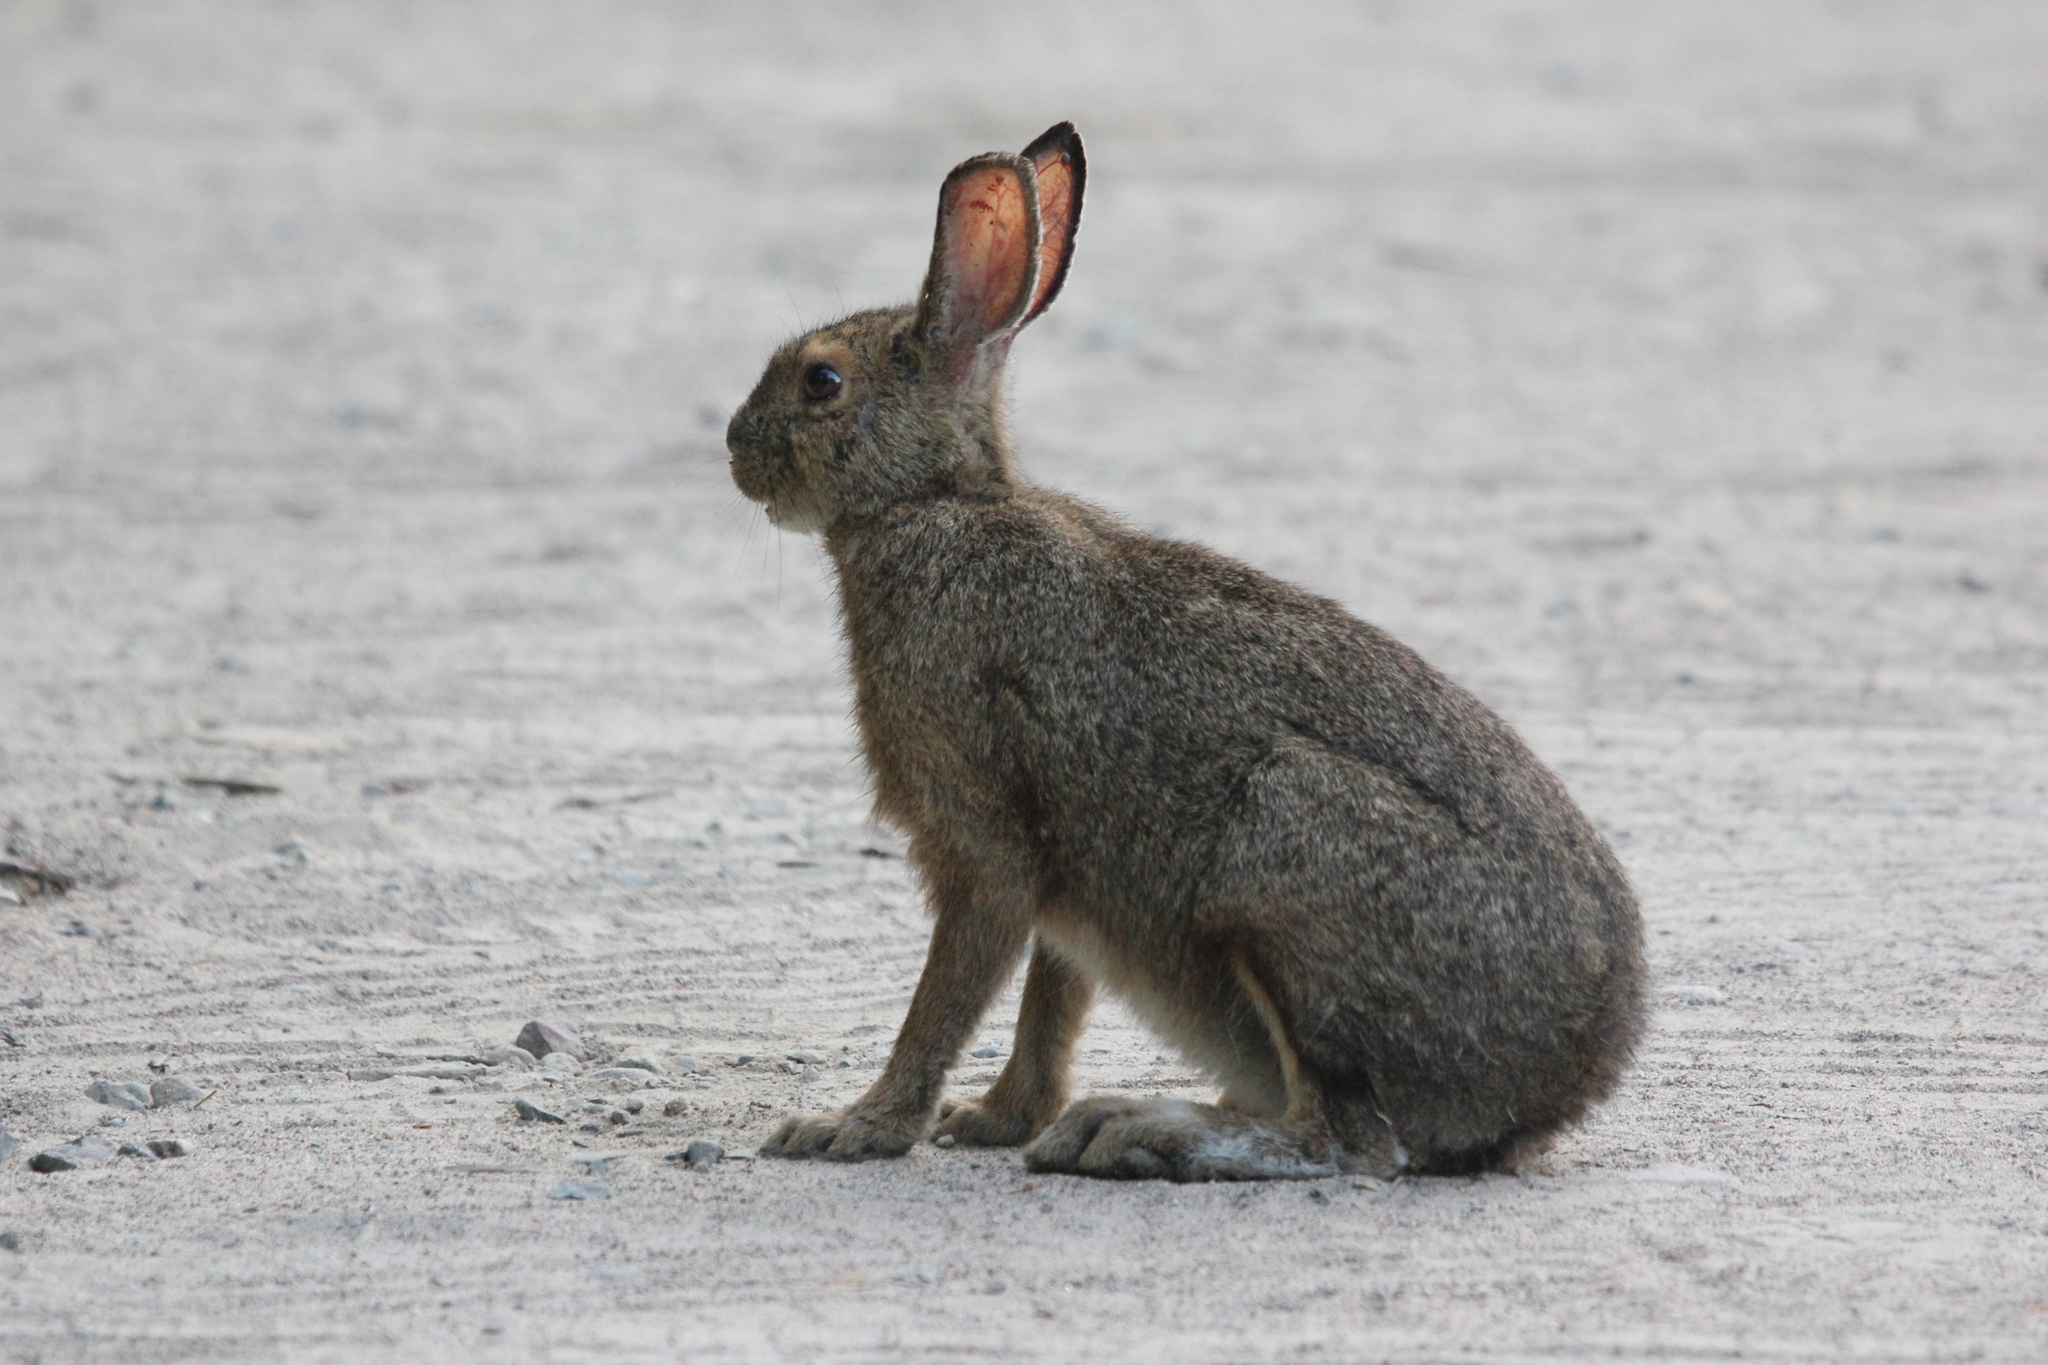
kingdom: Animalia
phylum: Chordata
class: Mammalia
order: Lagomorpha
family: Leporidae
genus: Lepus
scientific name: Lepus americanus
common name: Snowshoe hare
